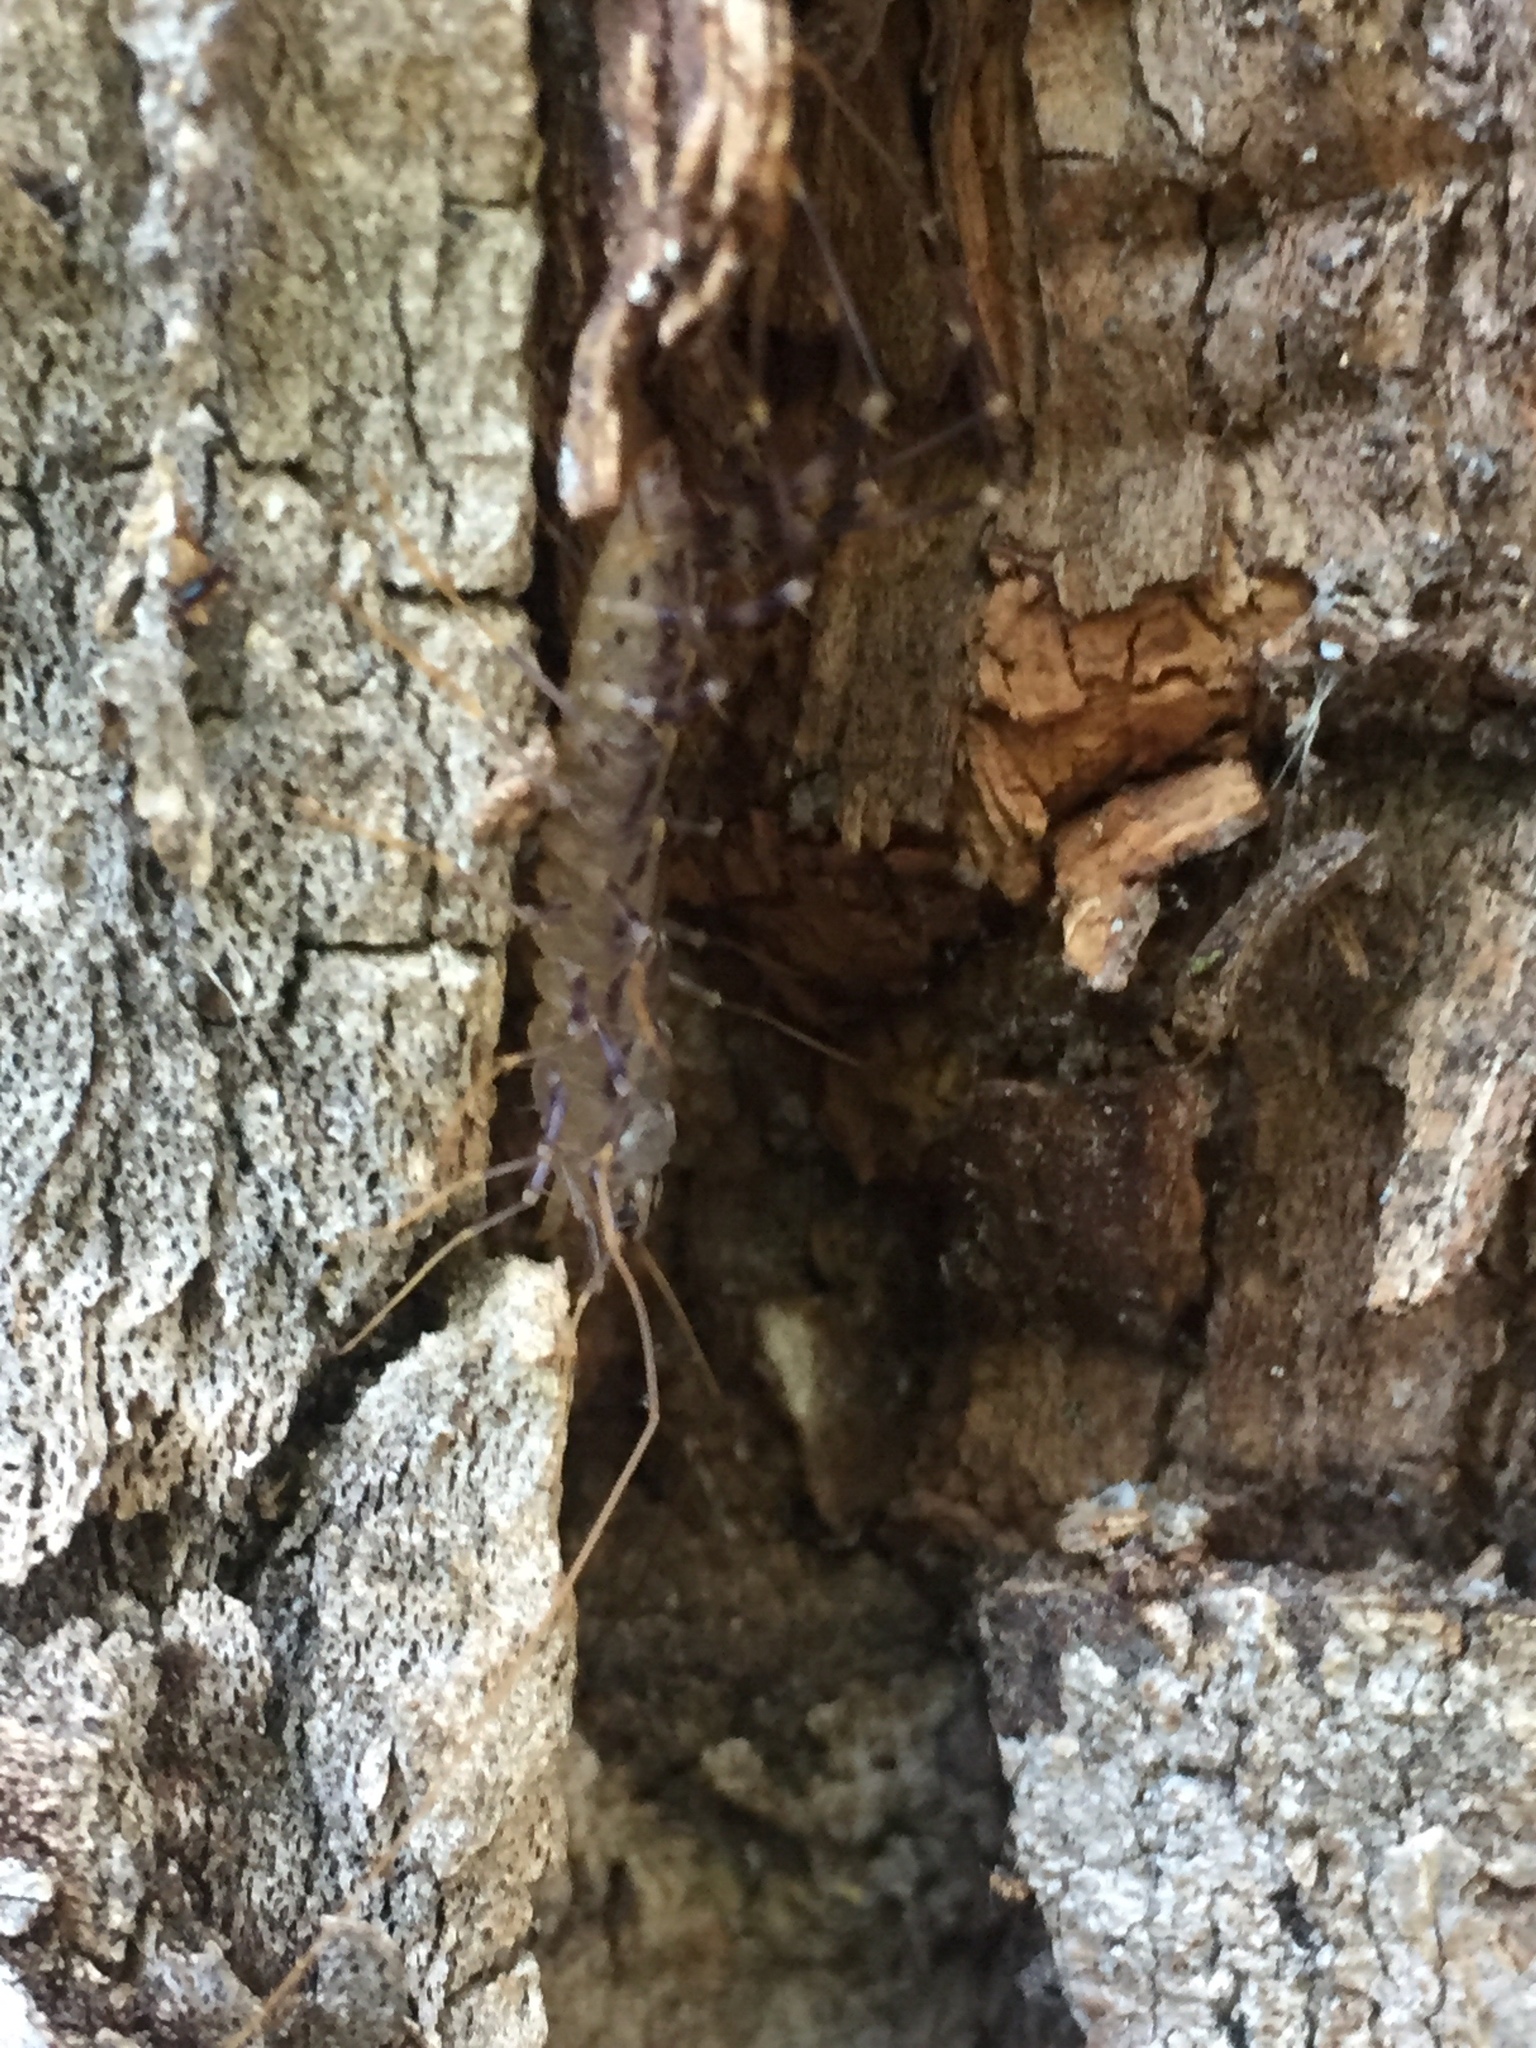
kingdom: Animalia
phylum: Arthropoda
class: Chilopoda
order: Scutigeromorpha
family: Scutigeridae
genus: Scutigera
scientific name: Scutigera coleoptrata
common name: House centipede
